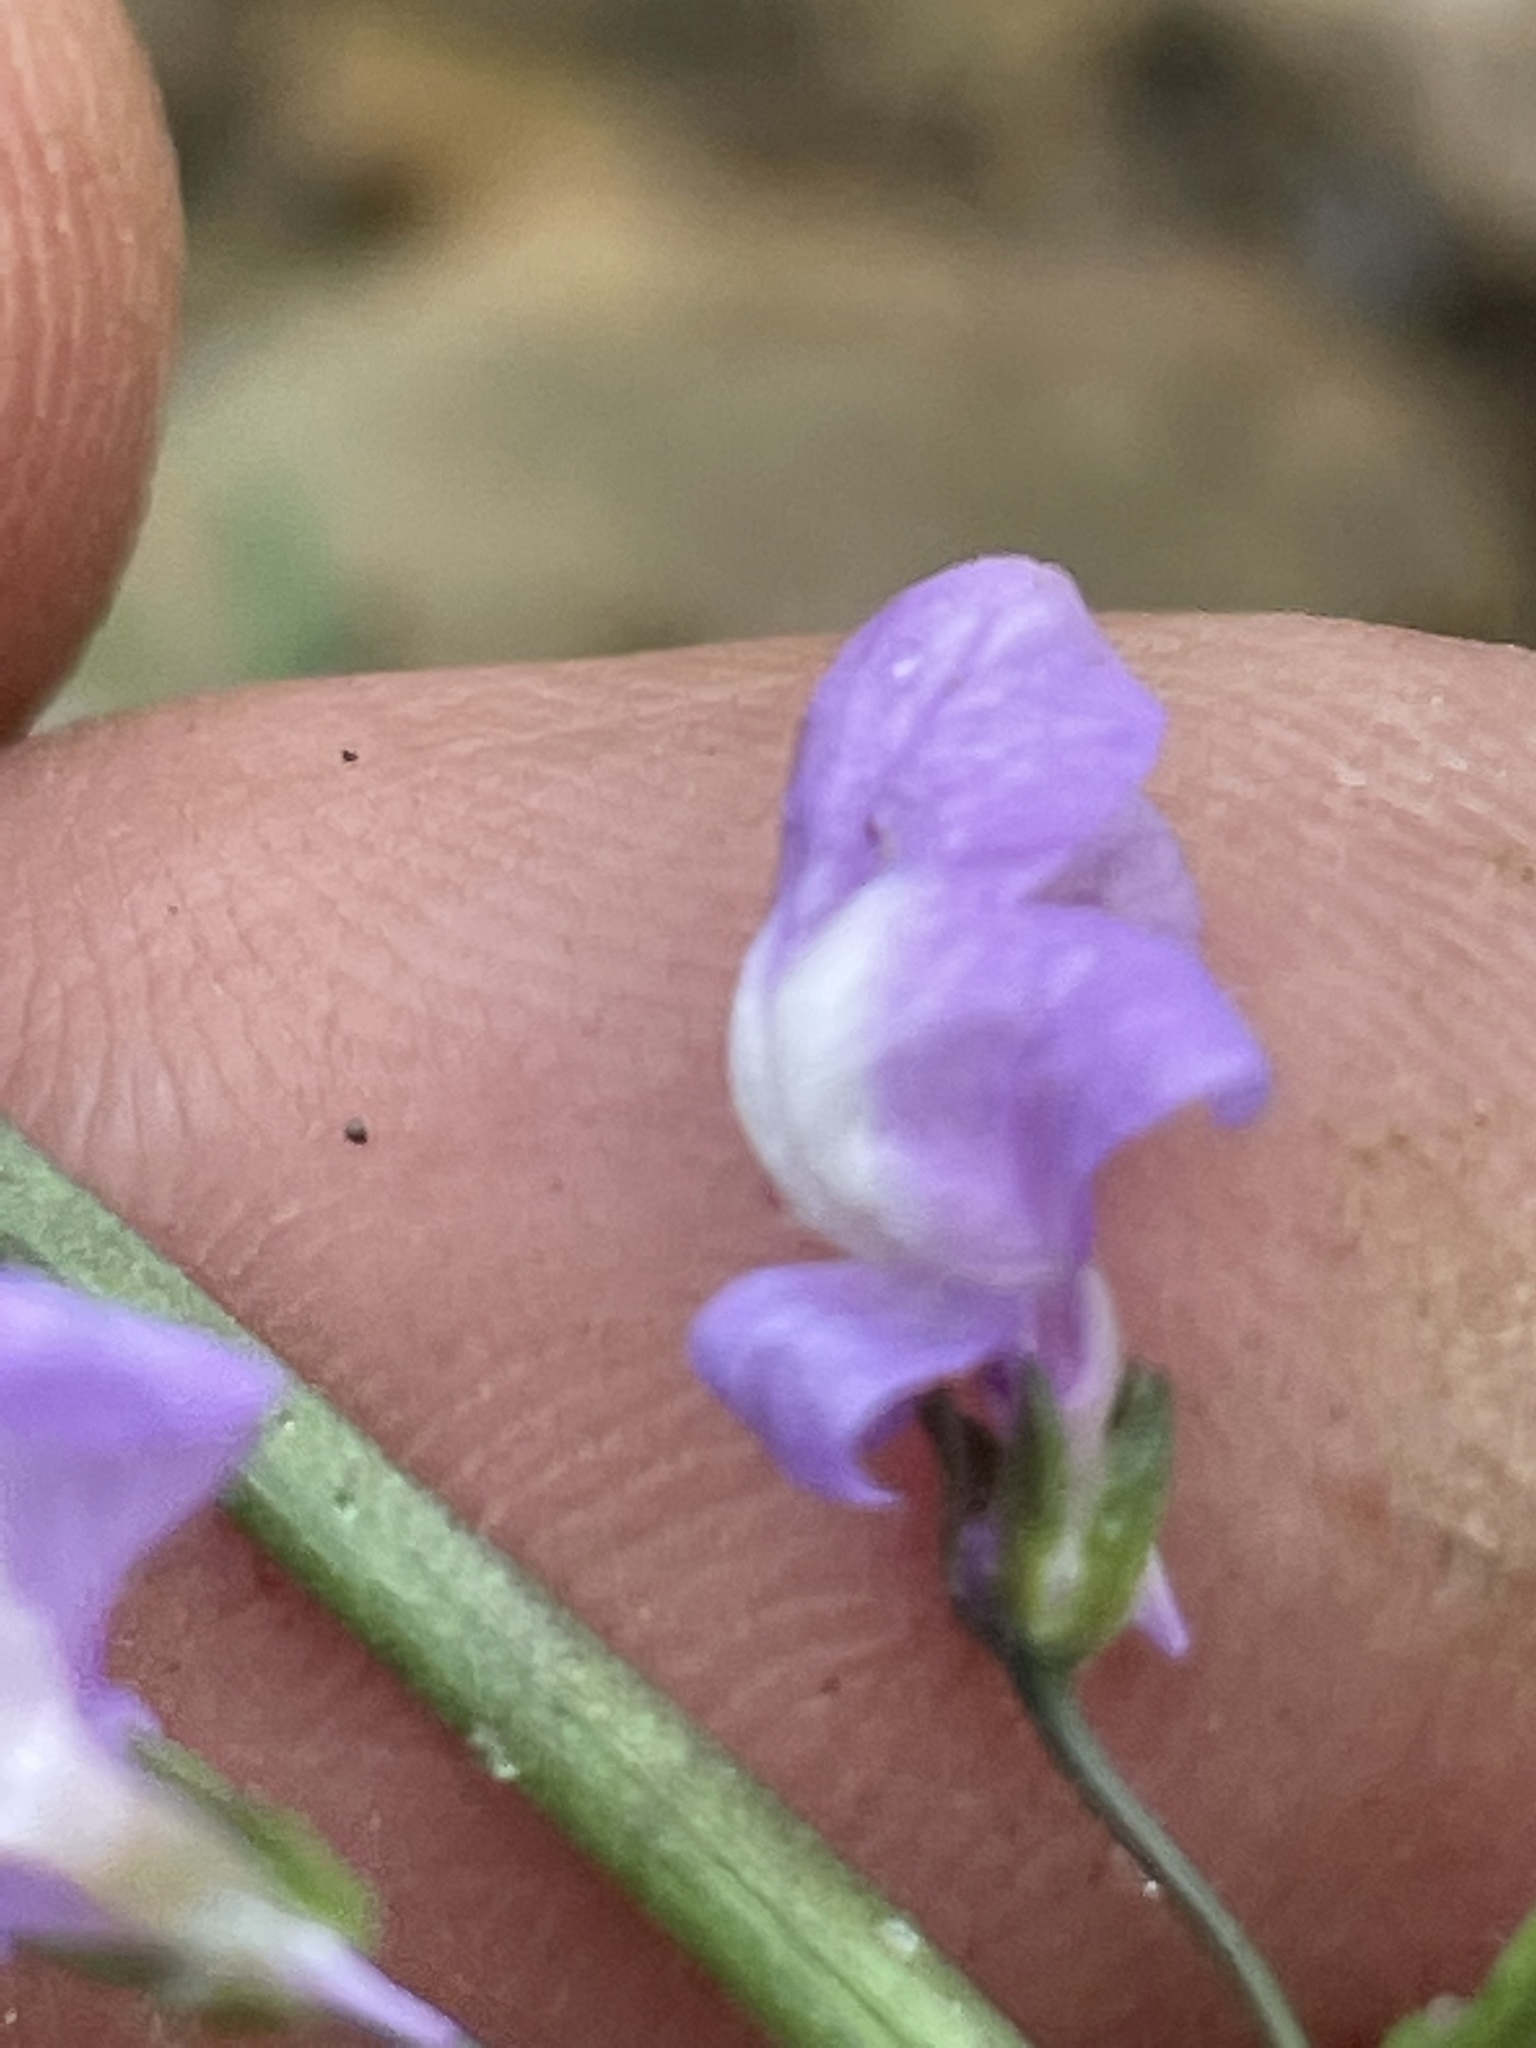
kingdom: Plantae
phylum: Tracheophyta
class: Magnoliopsida
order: Lamiales
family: Plantaginaceae
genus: Nuttallanthus
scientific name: Nuttallanthus canadensis
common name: Blue toadflax
